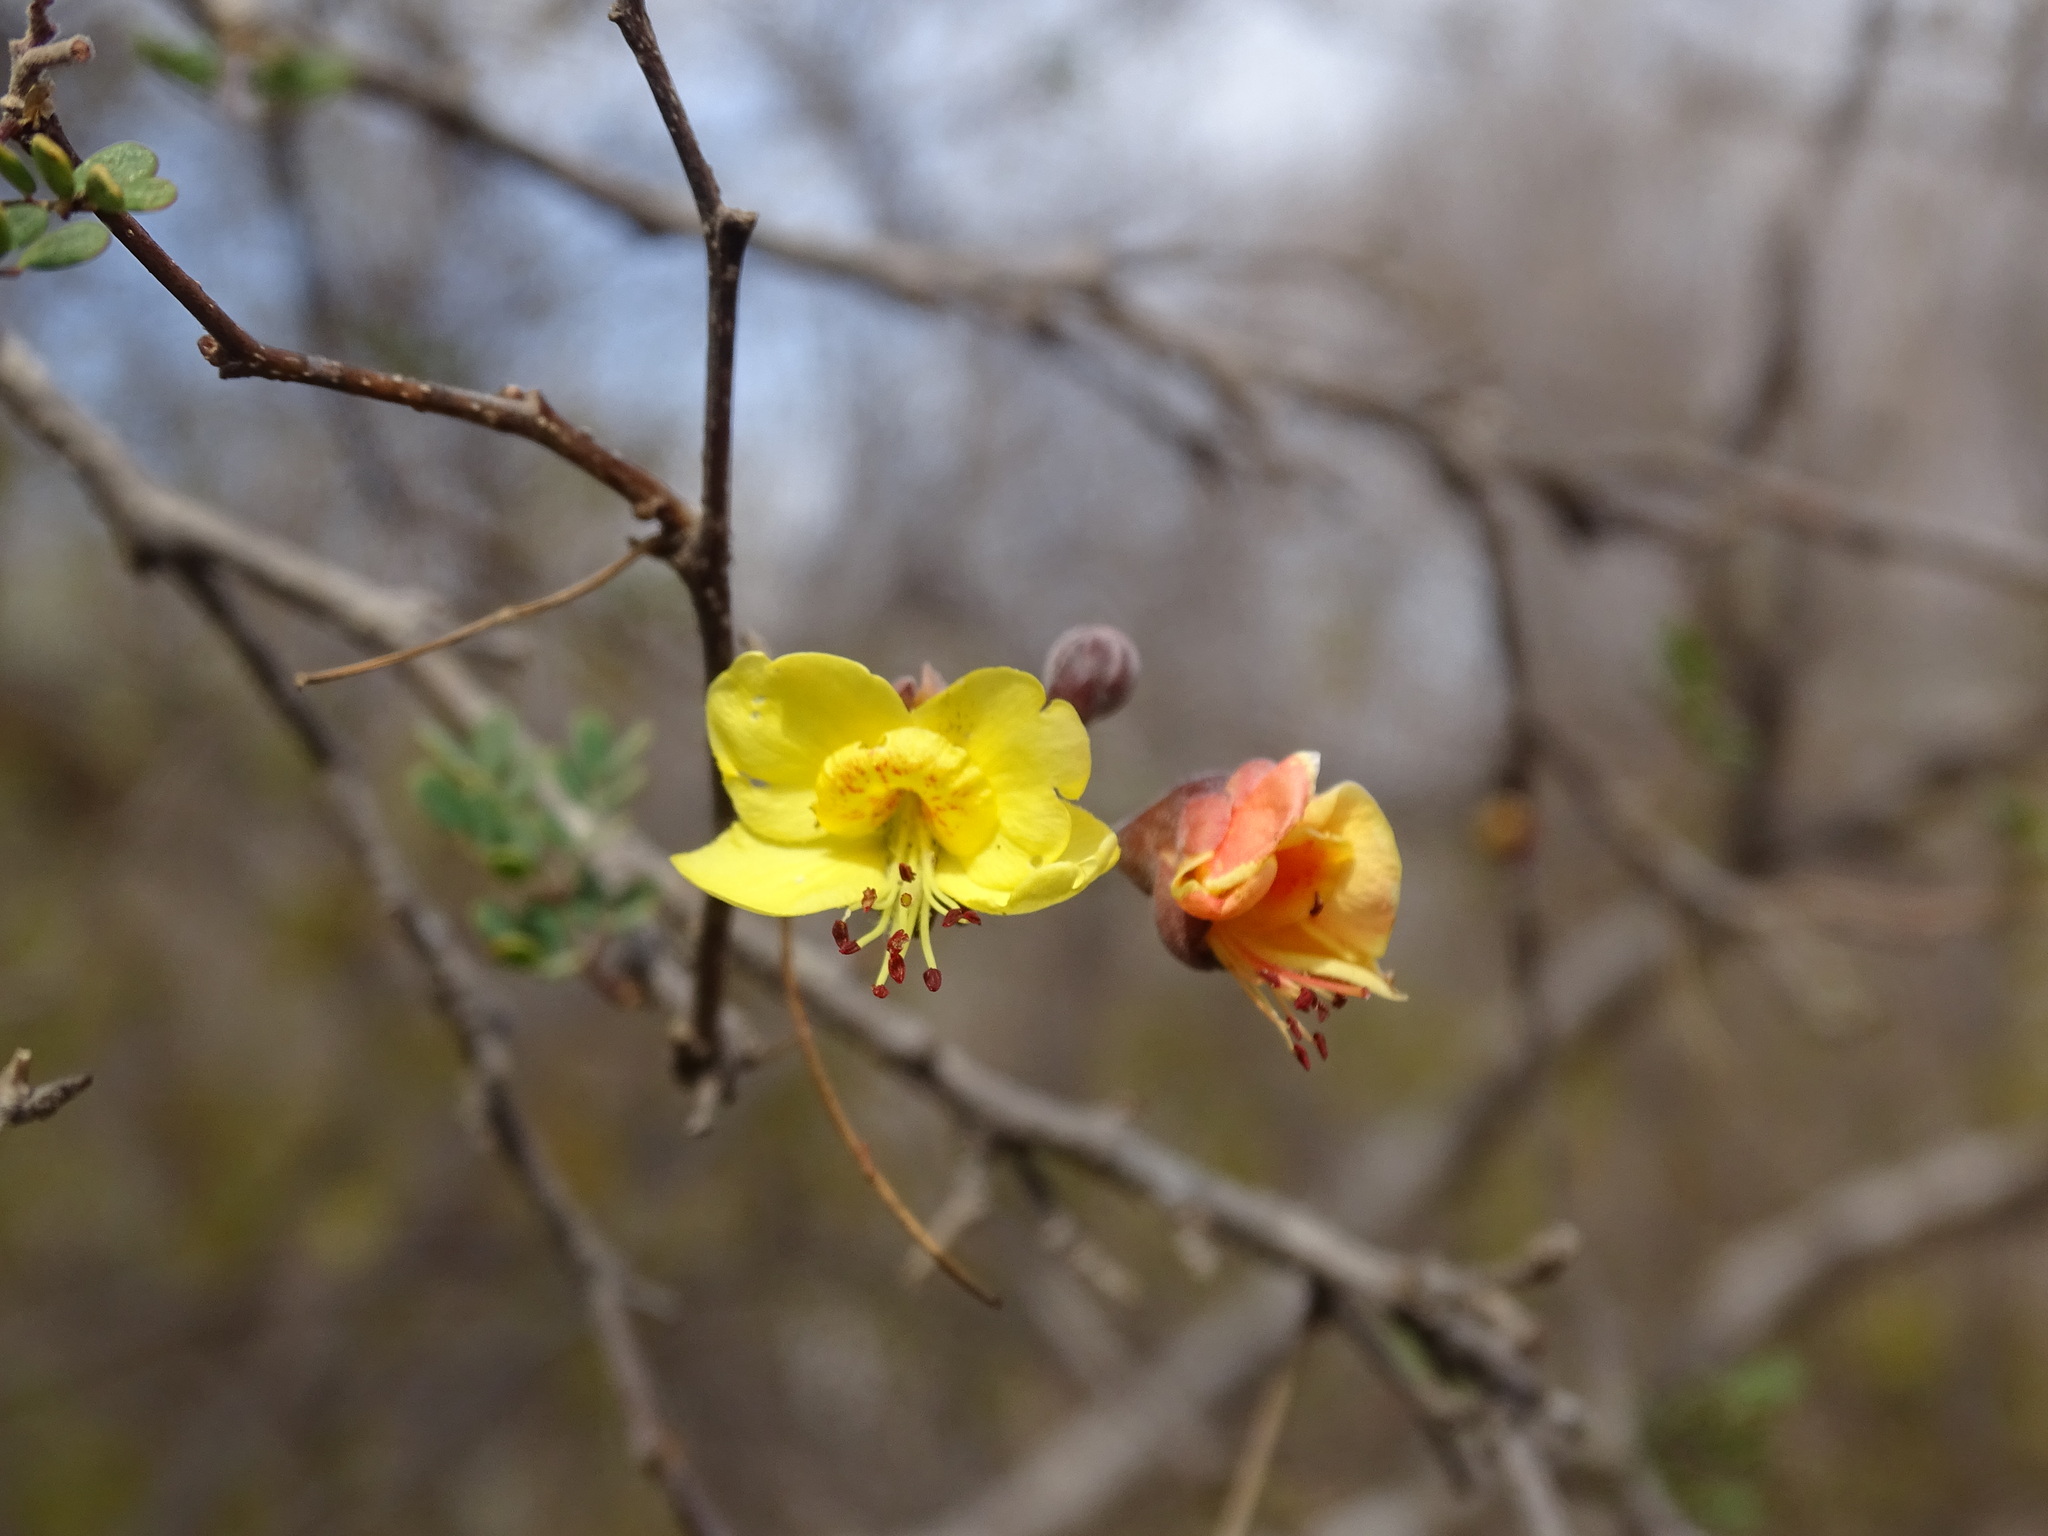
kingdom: Plantae
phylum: Tracheophyta
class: Magnoliopsida
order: Fabales
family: Fabaceae
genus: Erythrostemon
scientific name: Erythrostemon palmeri
